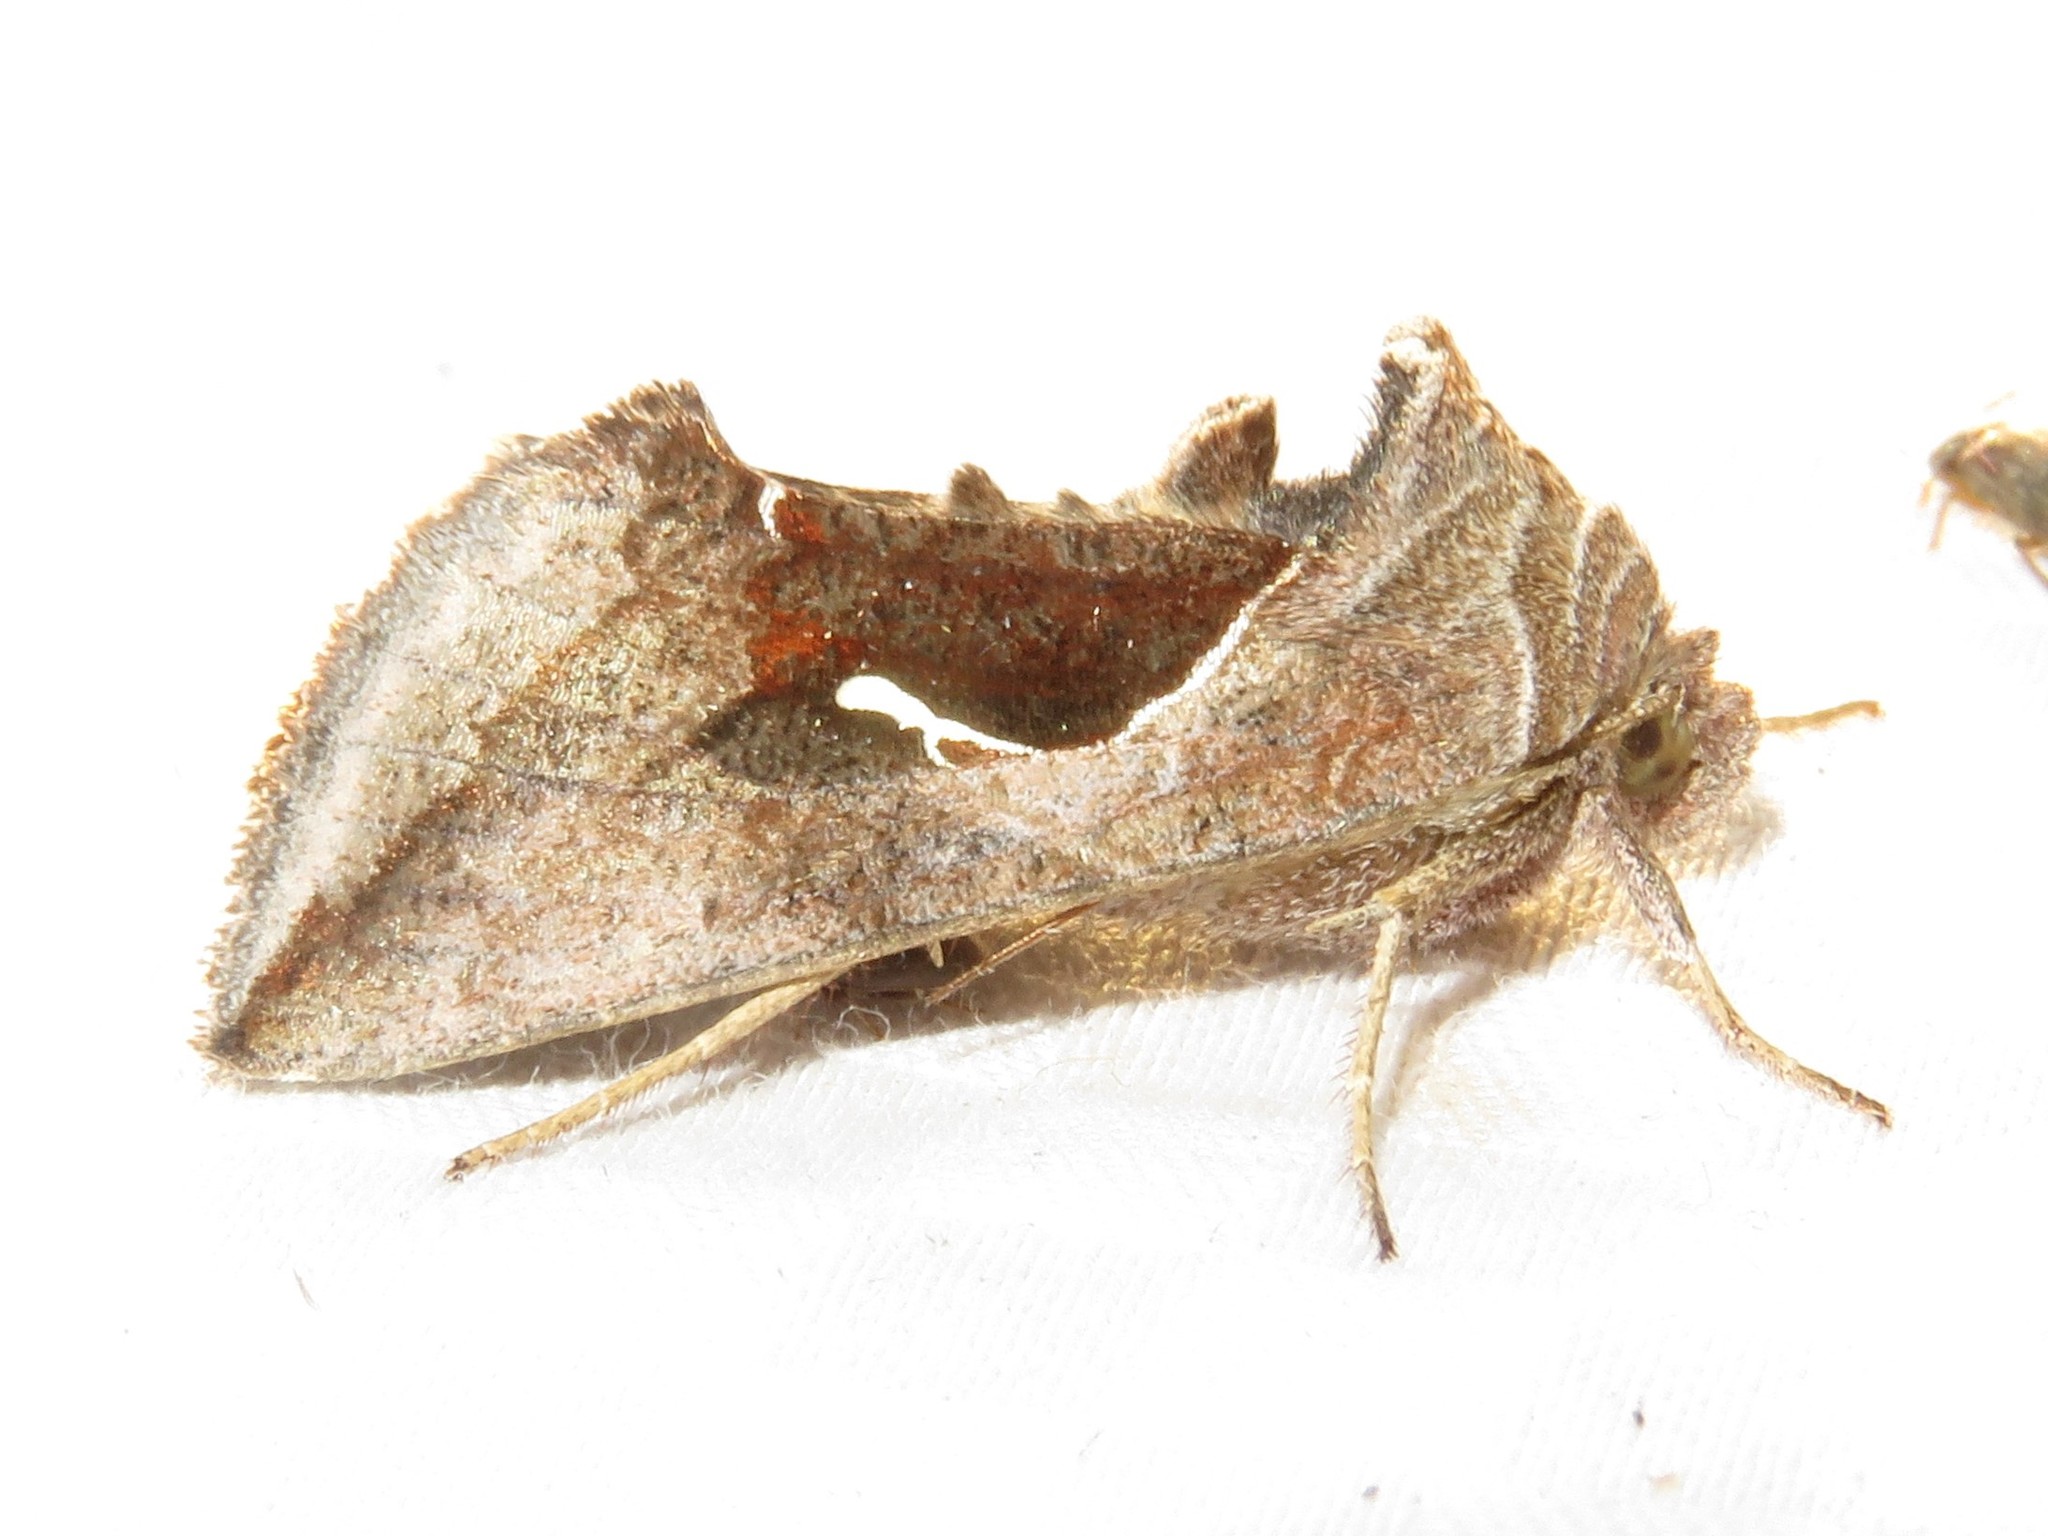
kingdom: Animalia
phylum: Arthropoda
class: Insecta
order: Lepidoptera
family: Noctuidae
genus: Anagrapha
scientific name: Anagrapha falcifera
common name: Celery looper
